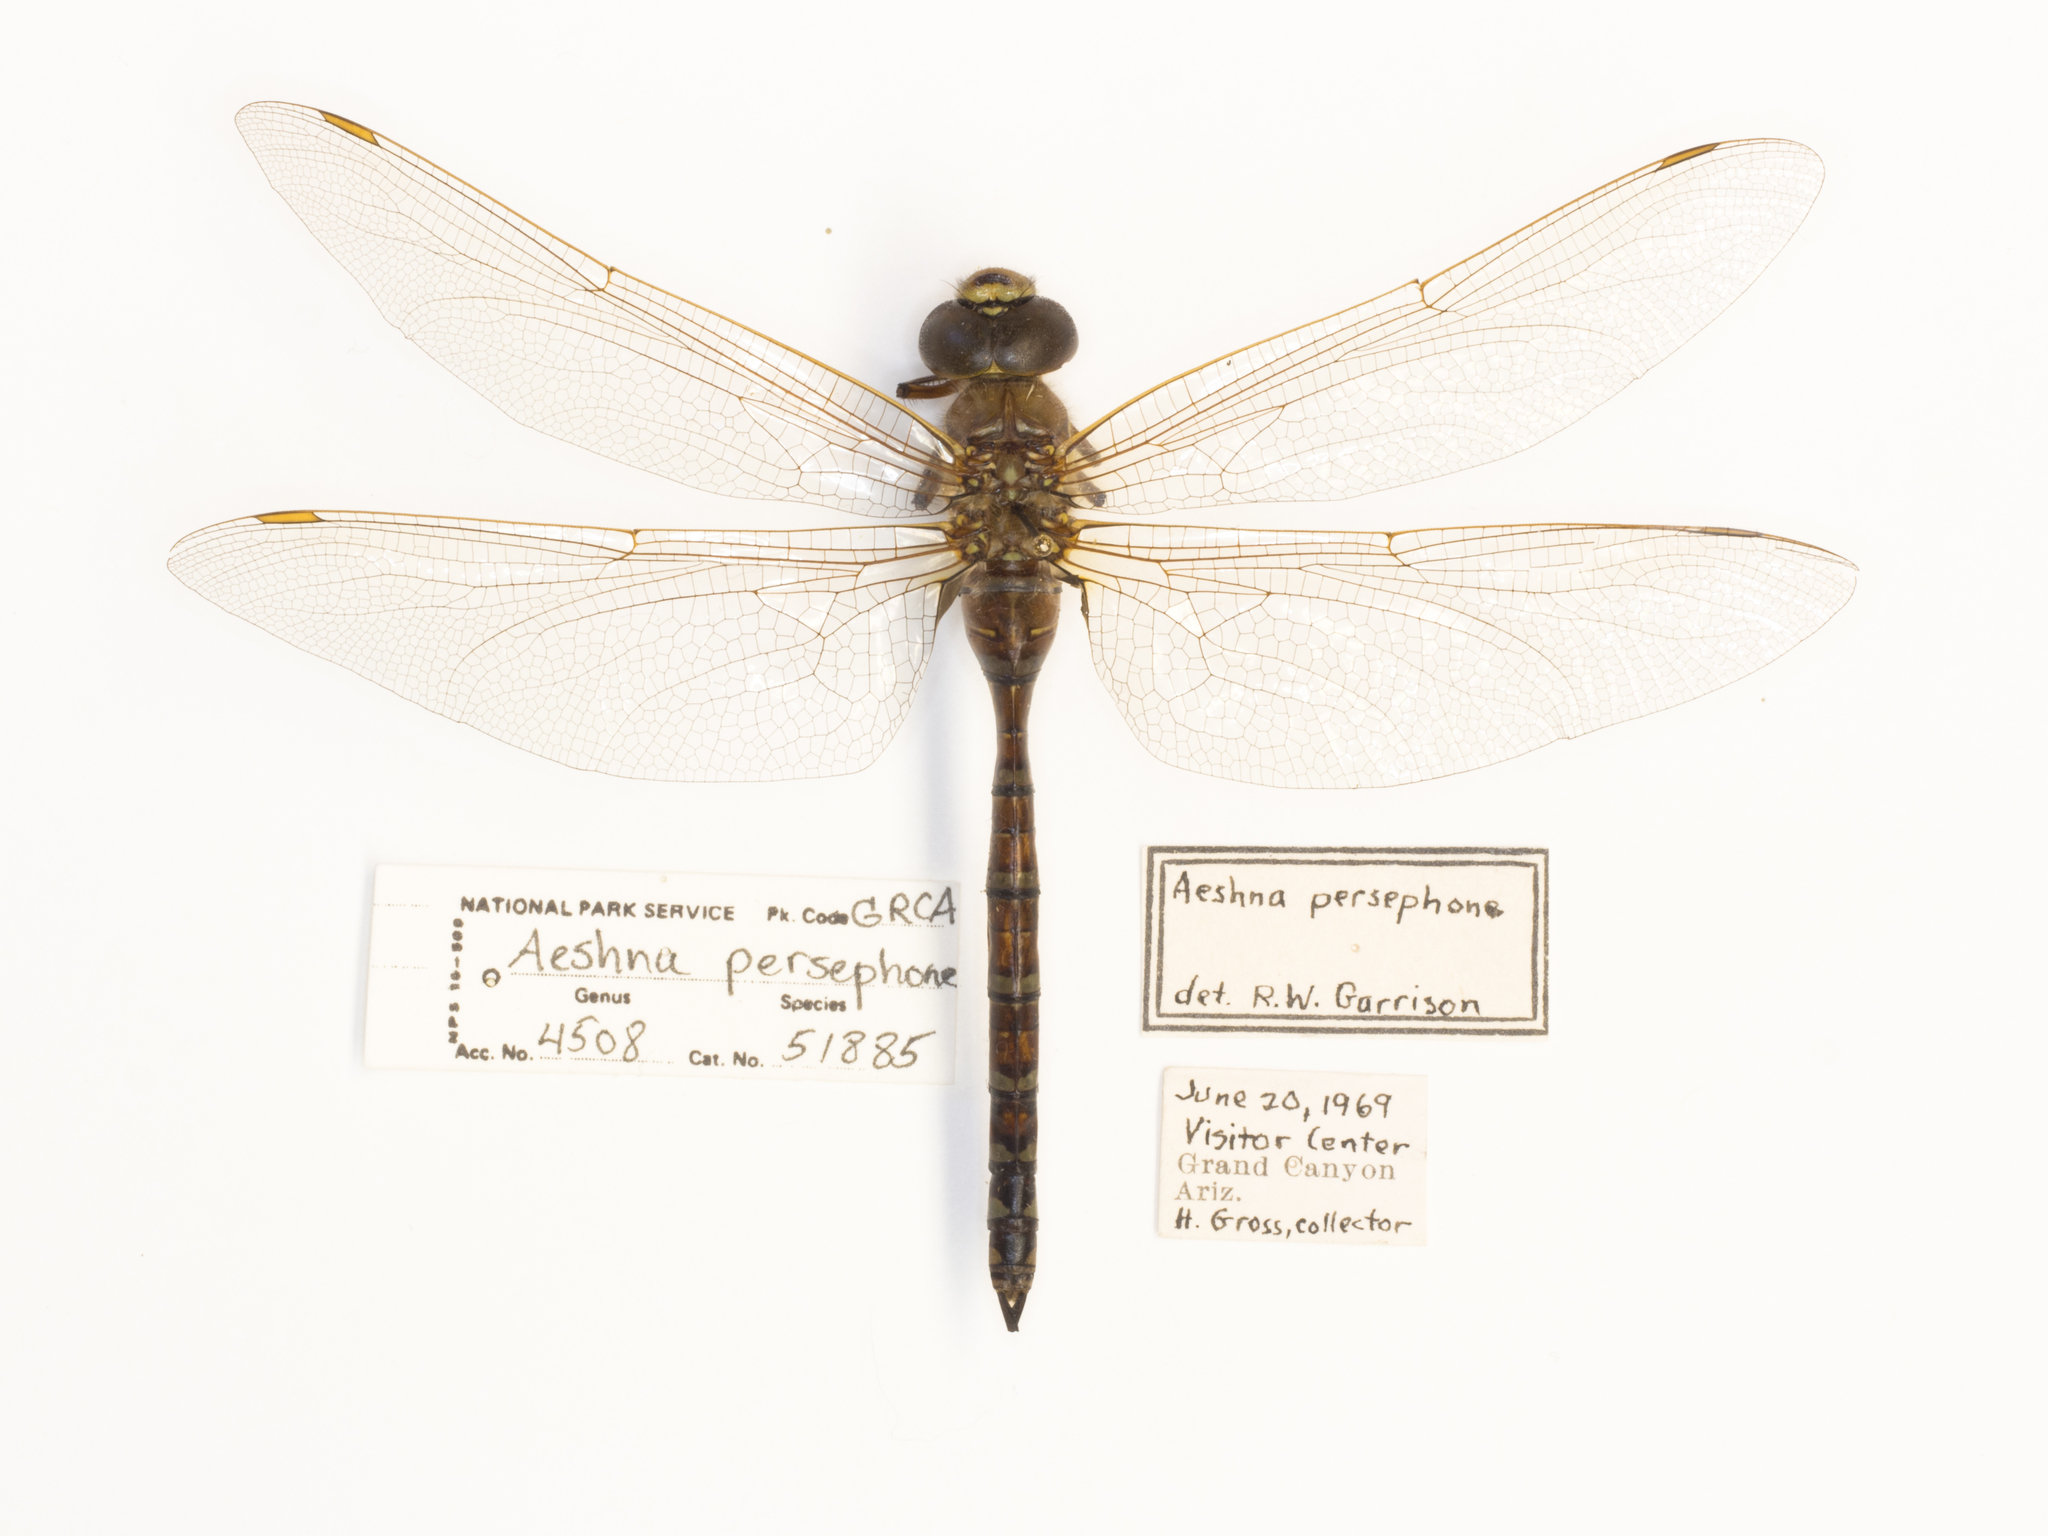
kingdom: Animalia
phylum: Arthropoda
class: Insecta
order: Odonata
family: Aeshnidae
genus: Aeshna
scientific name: Aeshna persephone
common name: Persephone's darner
